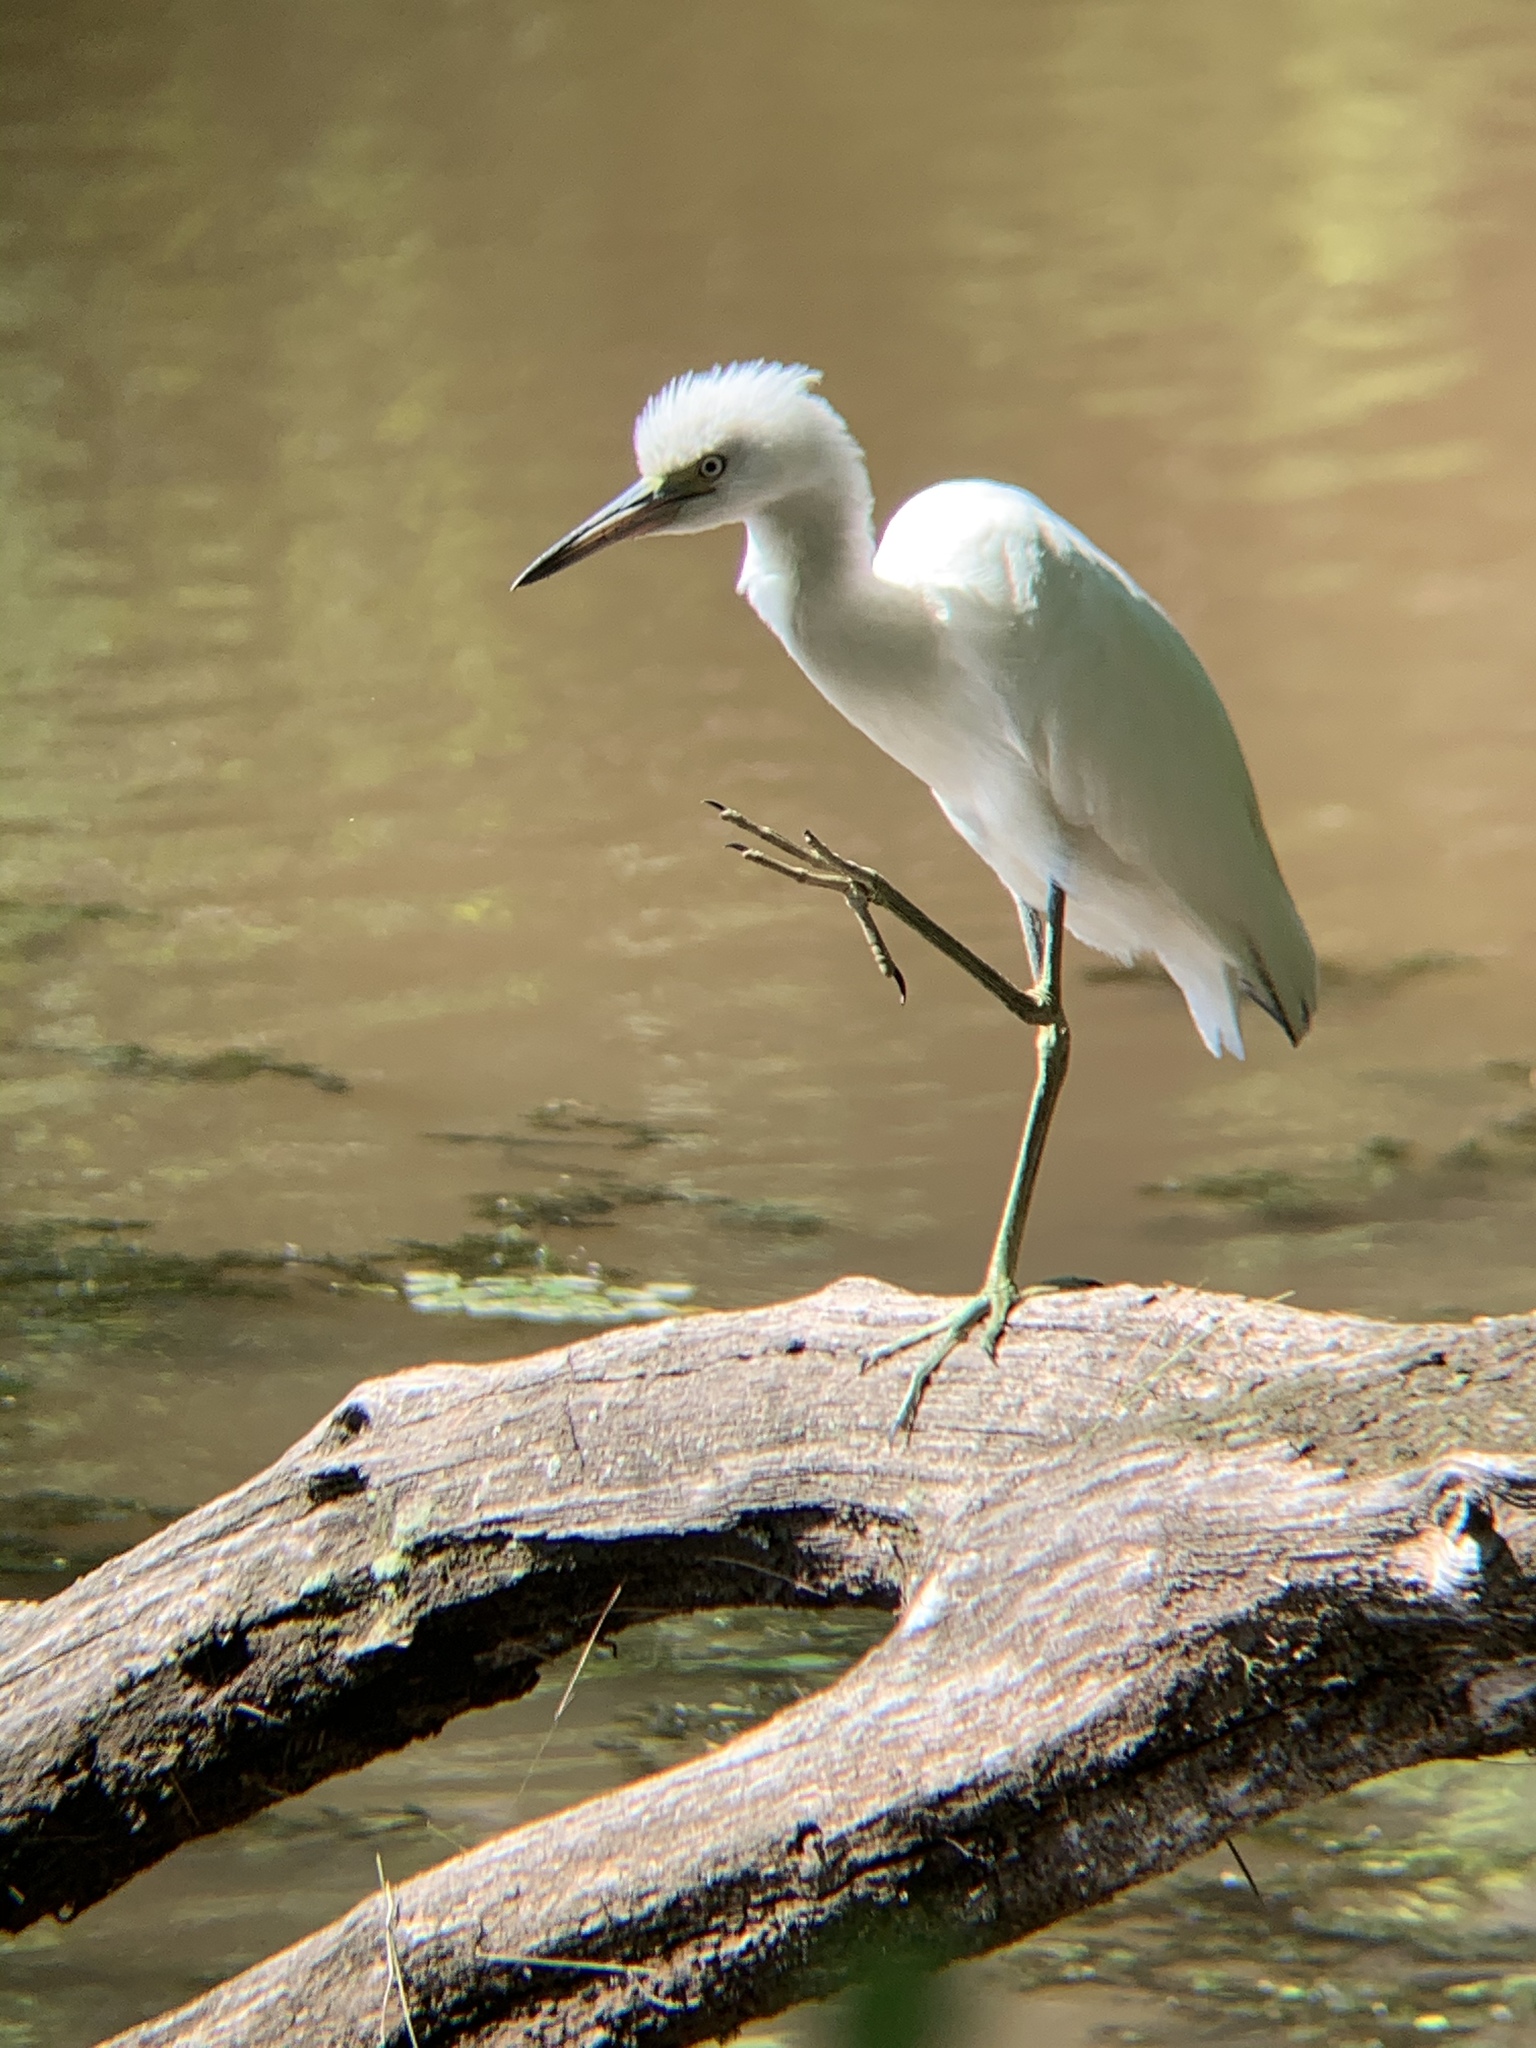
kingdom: Animalia
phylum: Chordata
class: Aves
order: Pelecaniformes
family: Ardeidae
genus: Egretta
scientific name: Egretta caerulea
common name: Little blue heron
